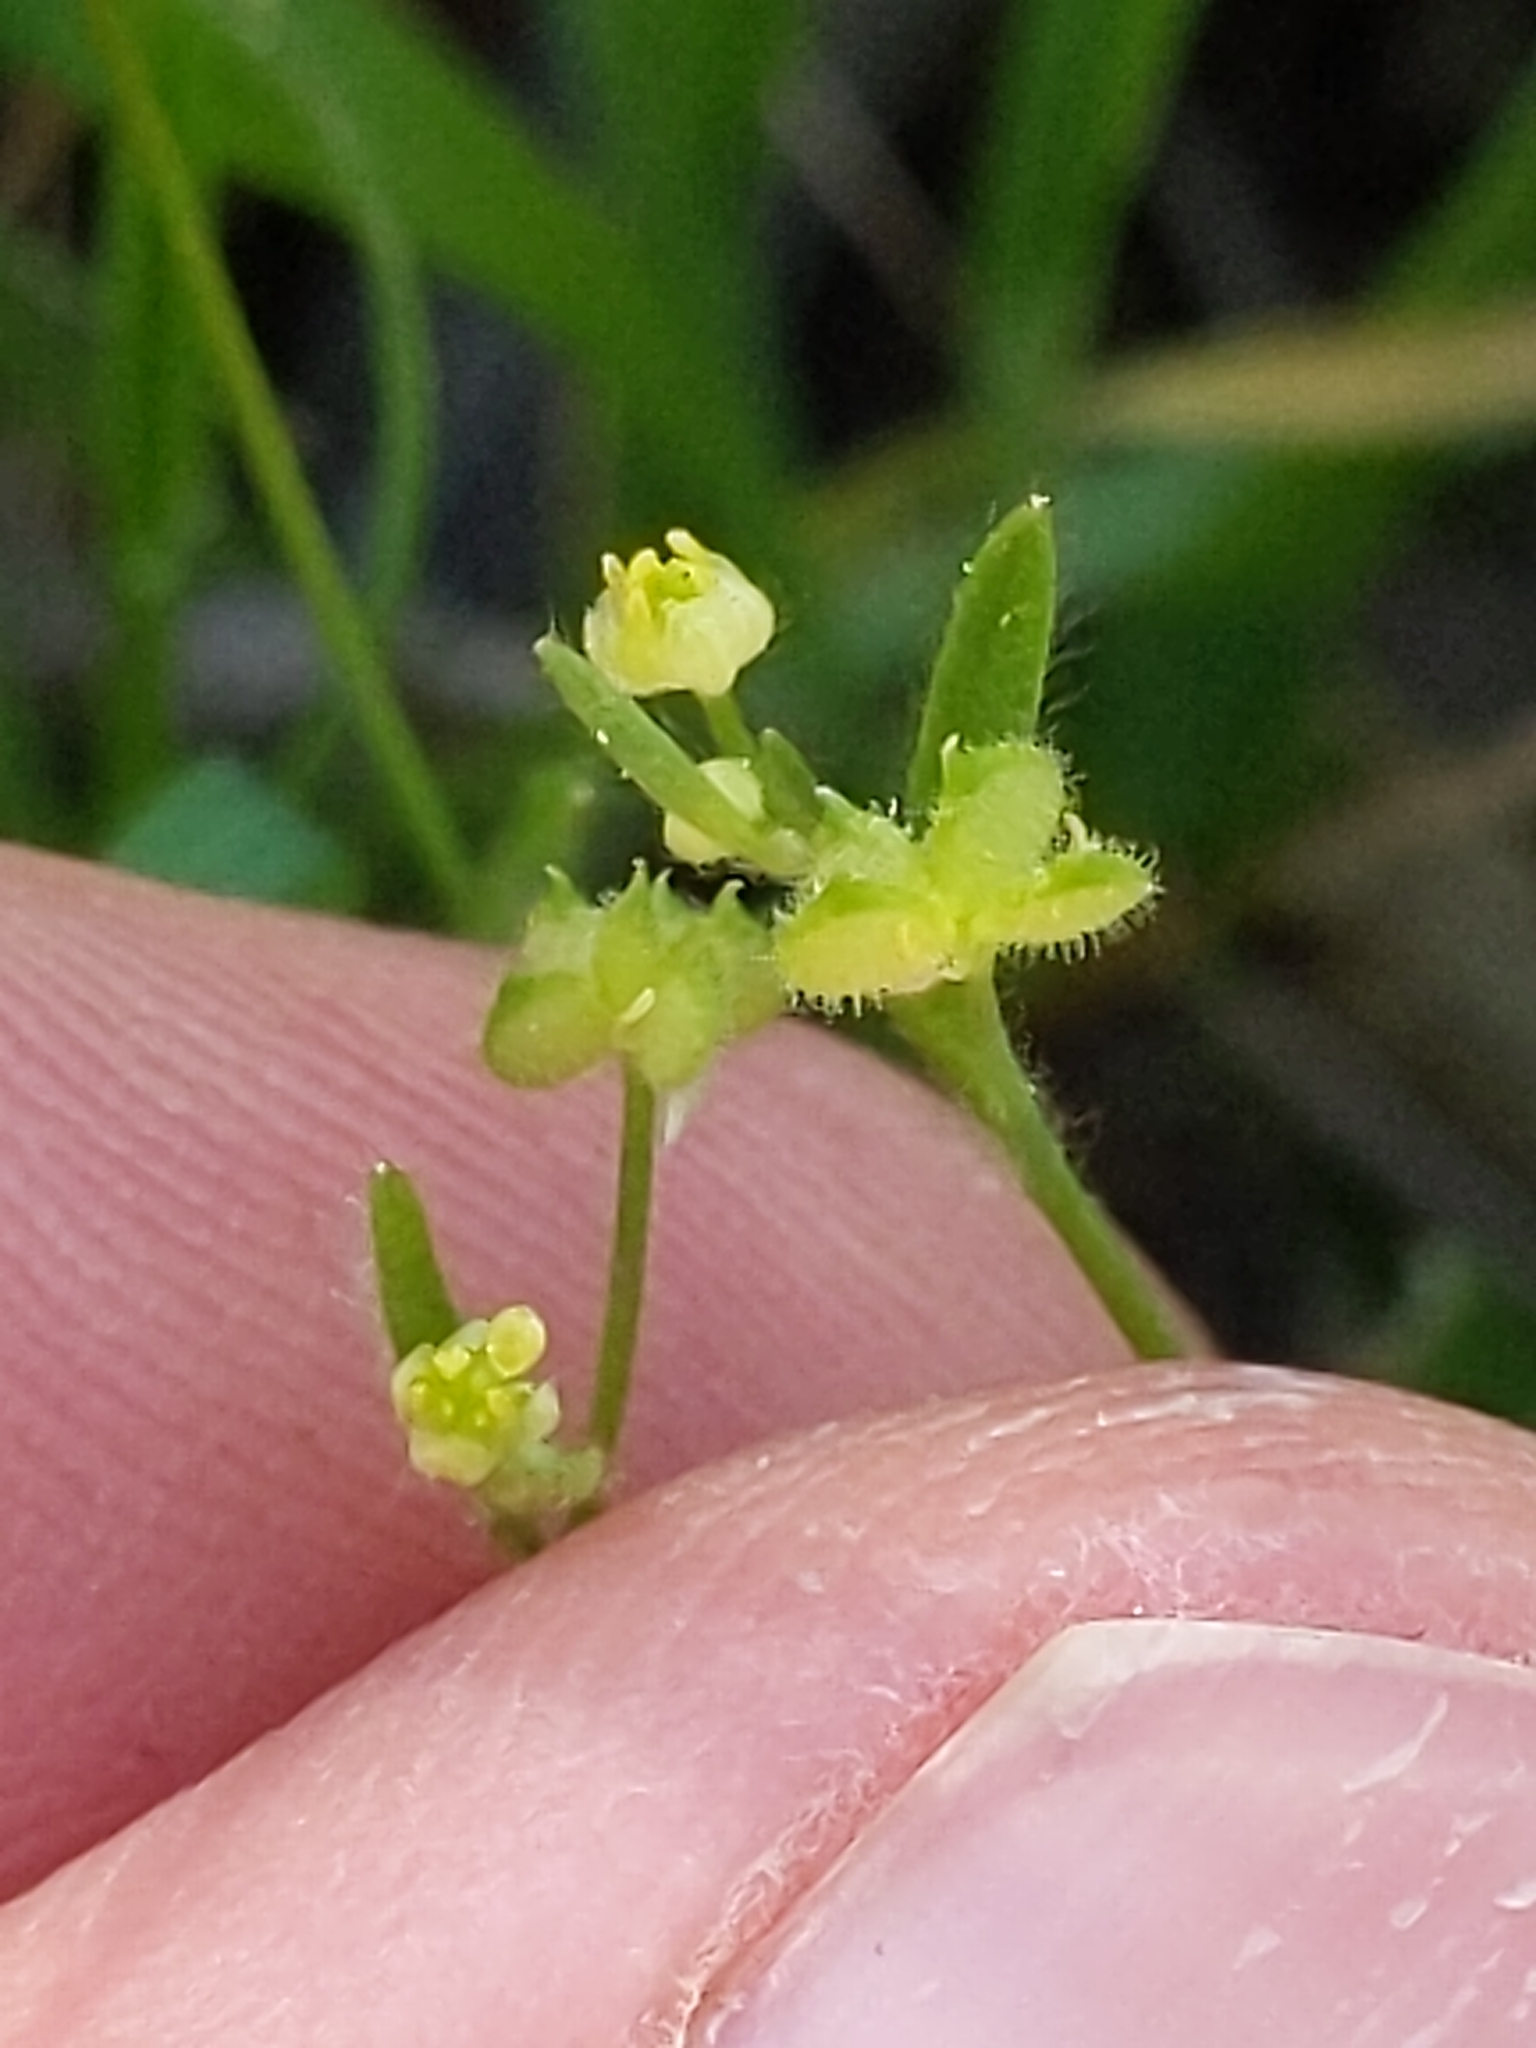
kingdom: Plantae
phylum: Tracheophyta
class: Magnoliopsida
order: Ranunculales
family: Ranunculaceae
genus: Ranunculus
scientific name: Ranunculus hebecarpus
